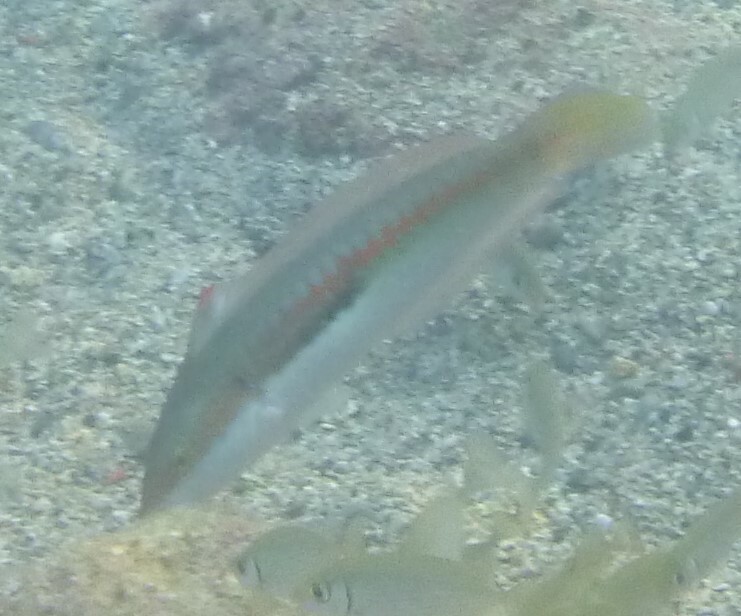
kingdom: Animalia
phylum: Chordata
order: Perciformes
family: Labridae
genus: Coris
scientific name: Coris julis
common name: Rainbow wrasse
